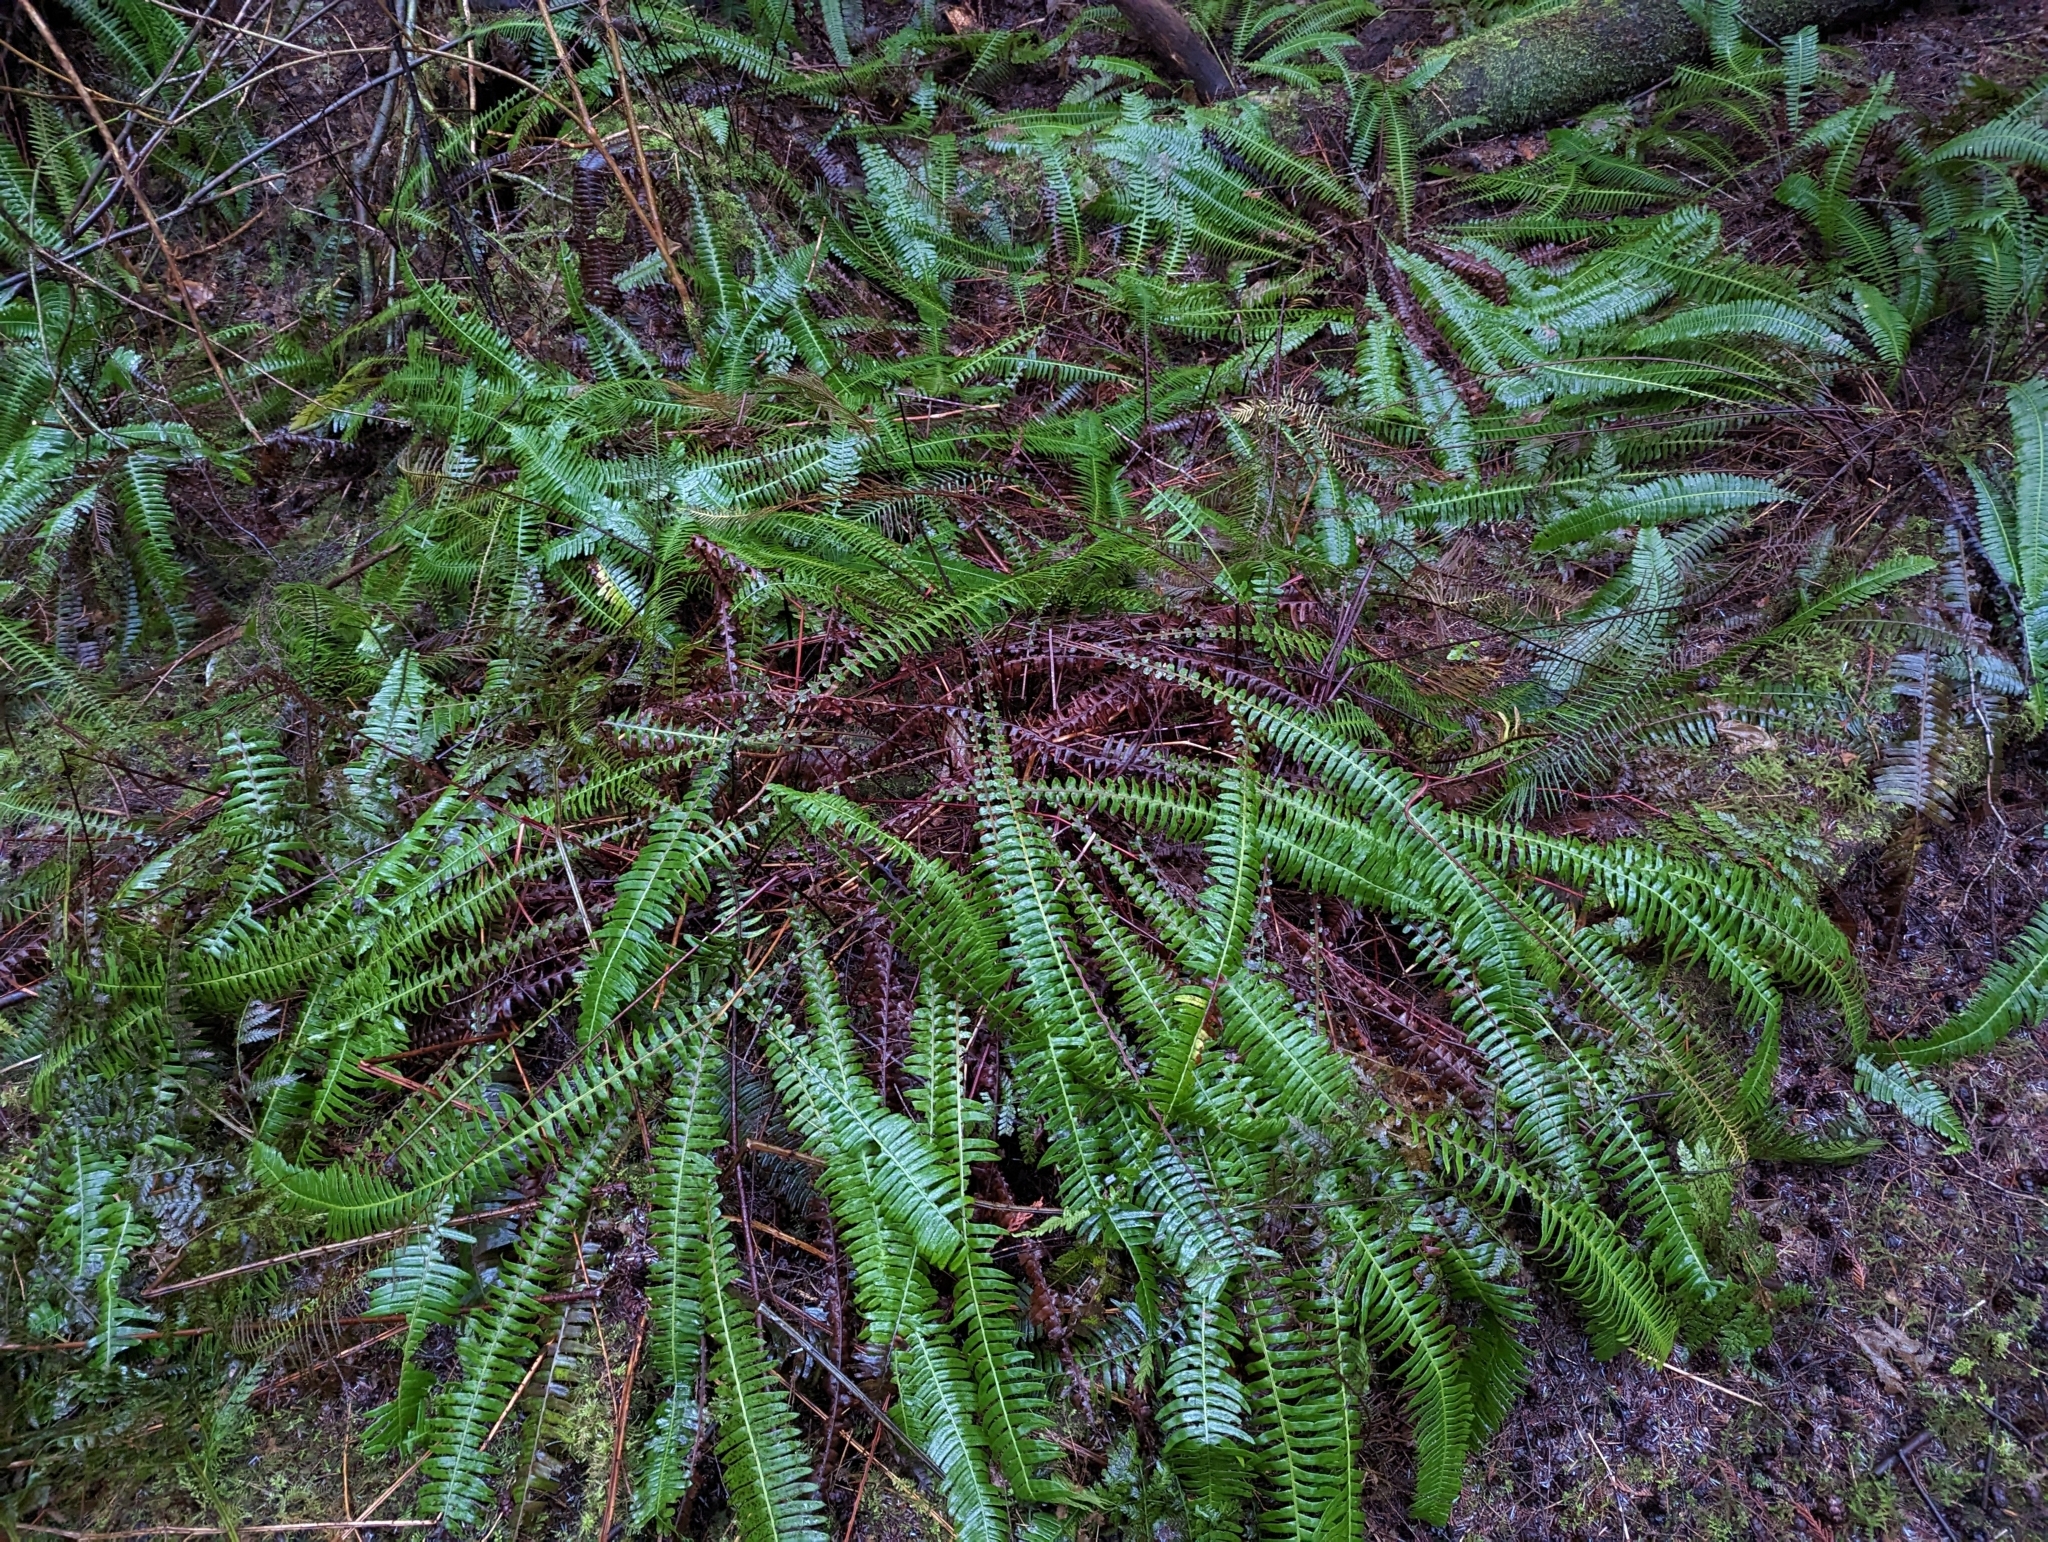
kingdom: Plantae
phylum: Tracheophyta
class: Polypodiopsida
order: Polypodiales
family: Blechnaceae
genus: Struthiopteris
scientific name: Struthiopteris spicant
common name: Deer fern
